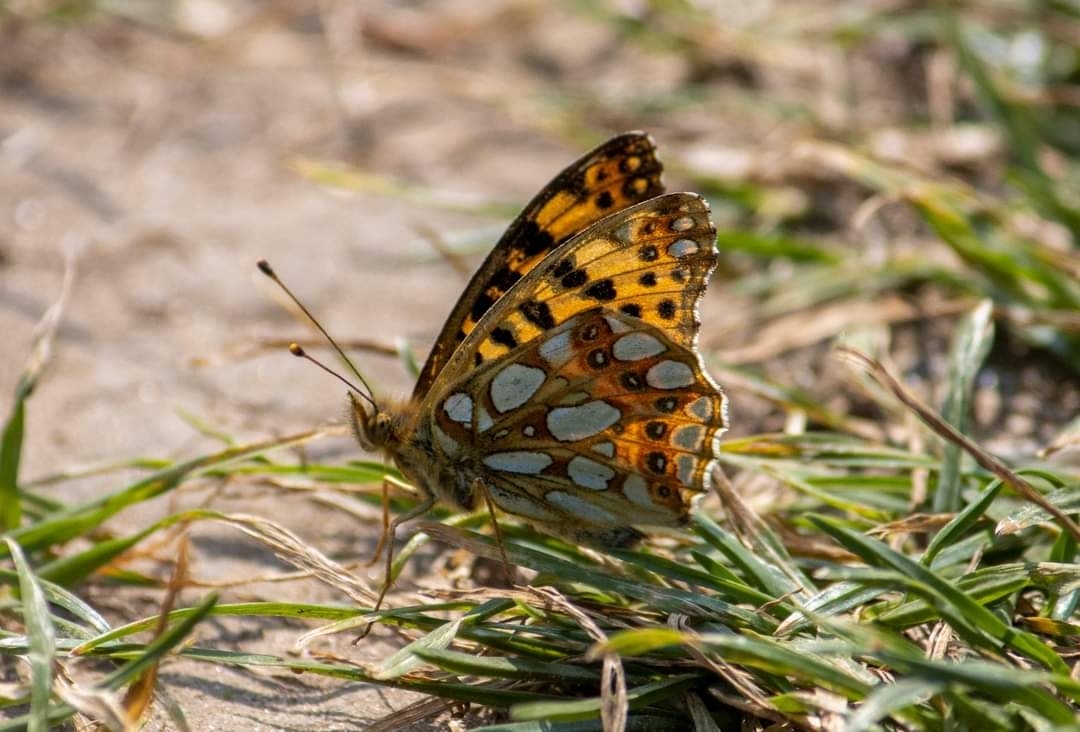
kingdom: Animalia
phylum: Arthropoda
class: Insecta
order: Lepidoptera
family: Nymphalidae
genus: Issoria
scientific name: Issoria lathonia
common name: Queen of spain fritillary
